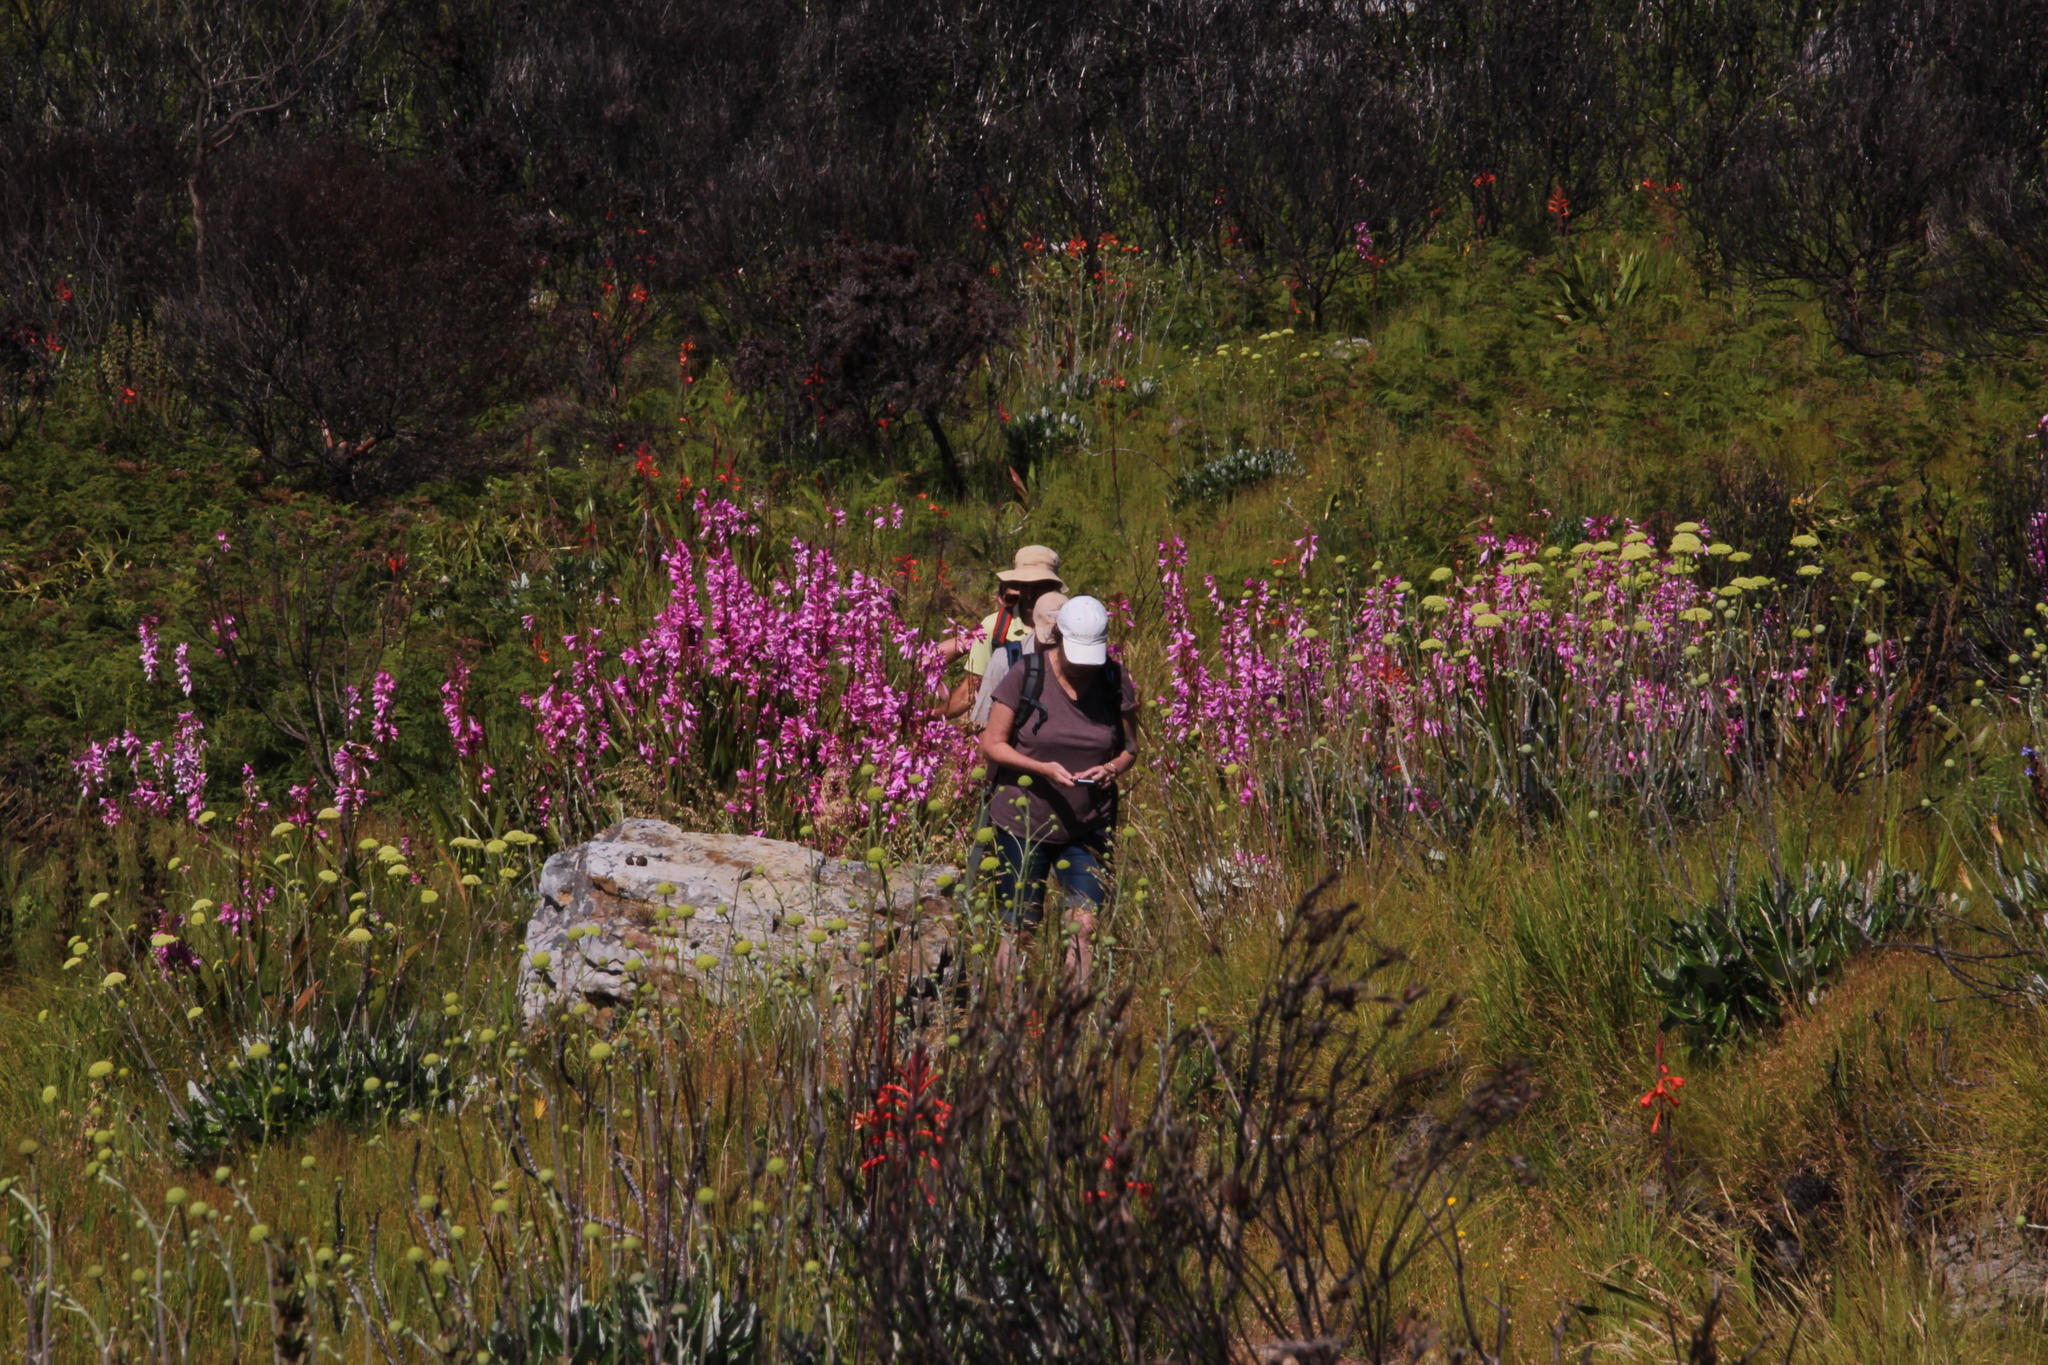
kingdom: Plantae
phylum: Tracheophyta
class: Liliopsida
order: Asparagales
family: Iridaceae
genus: Watsonia
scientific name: Watsonia borbonica
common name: Bugle-lily
